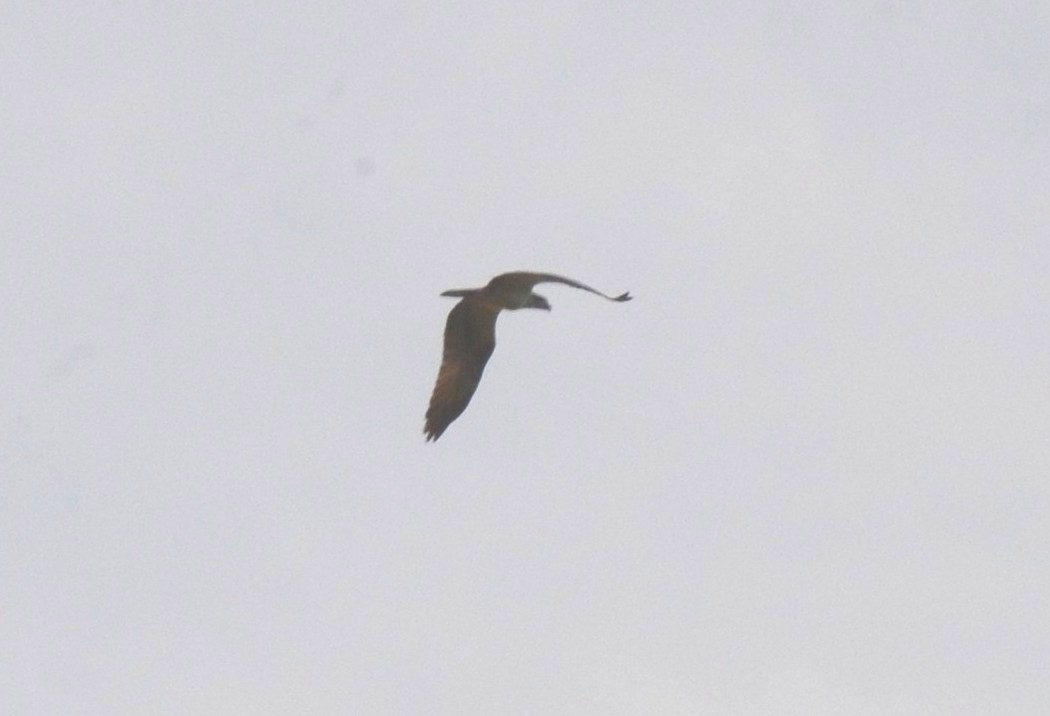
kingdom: Animalia
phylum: Chordata
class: Aves
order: Accipitriformes
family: Pandionidae
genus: Pandion
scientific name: Pandion haliaetus
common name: Osprey
